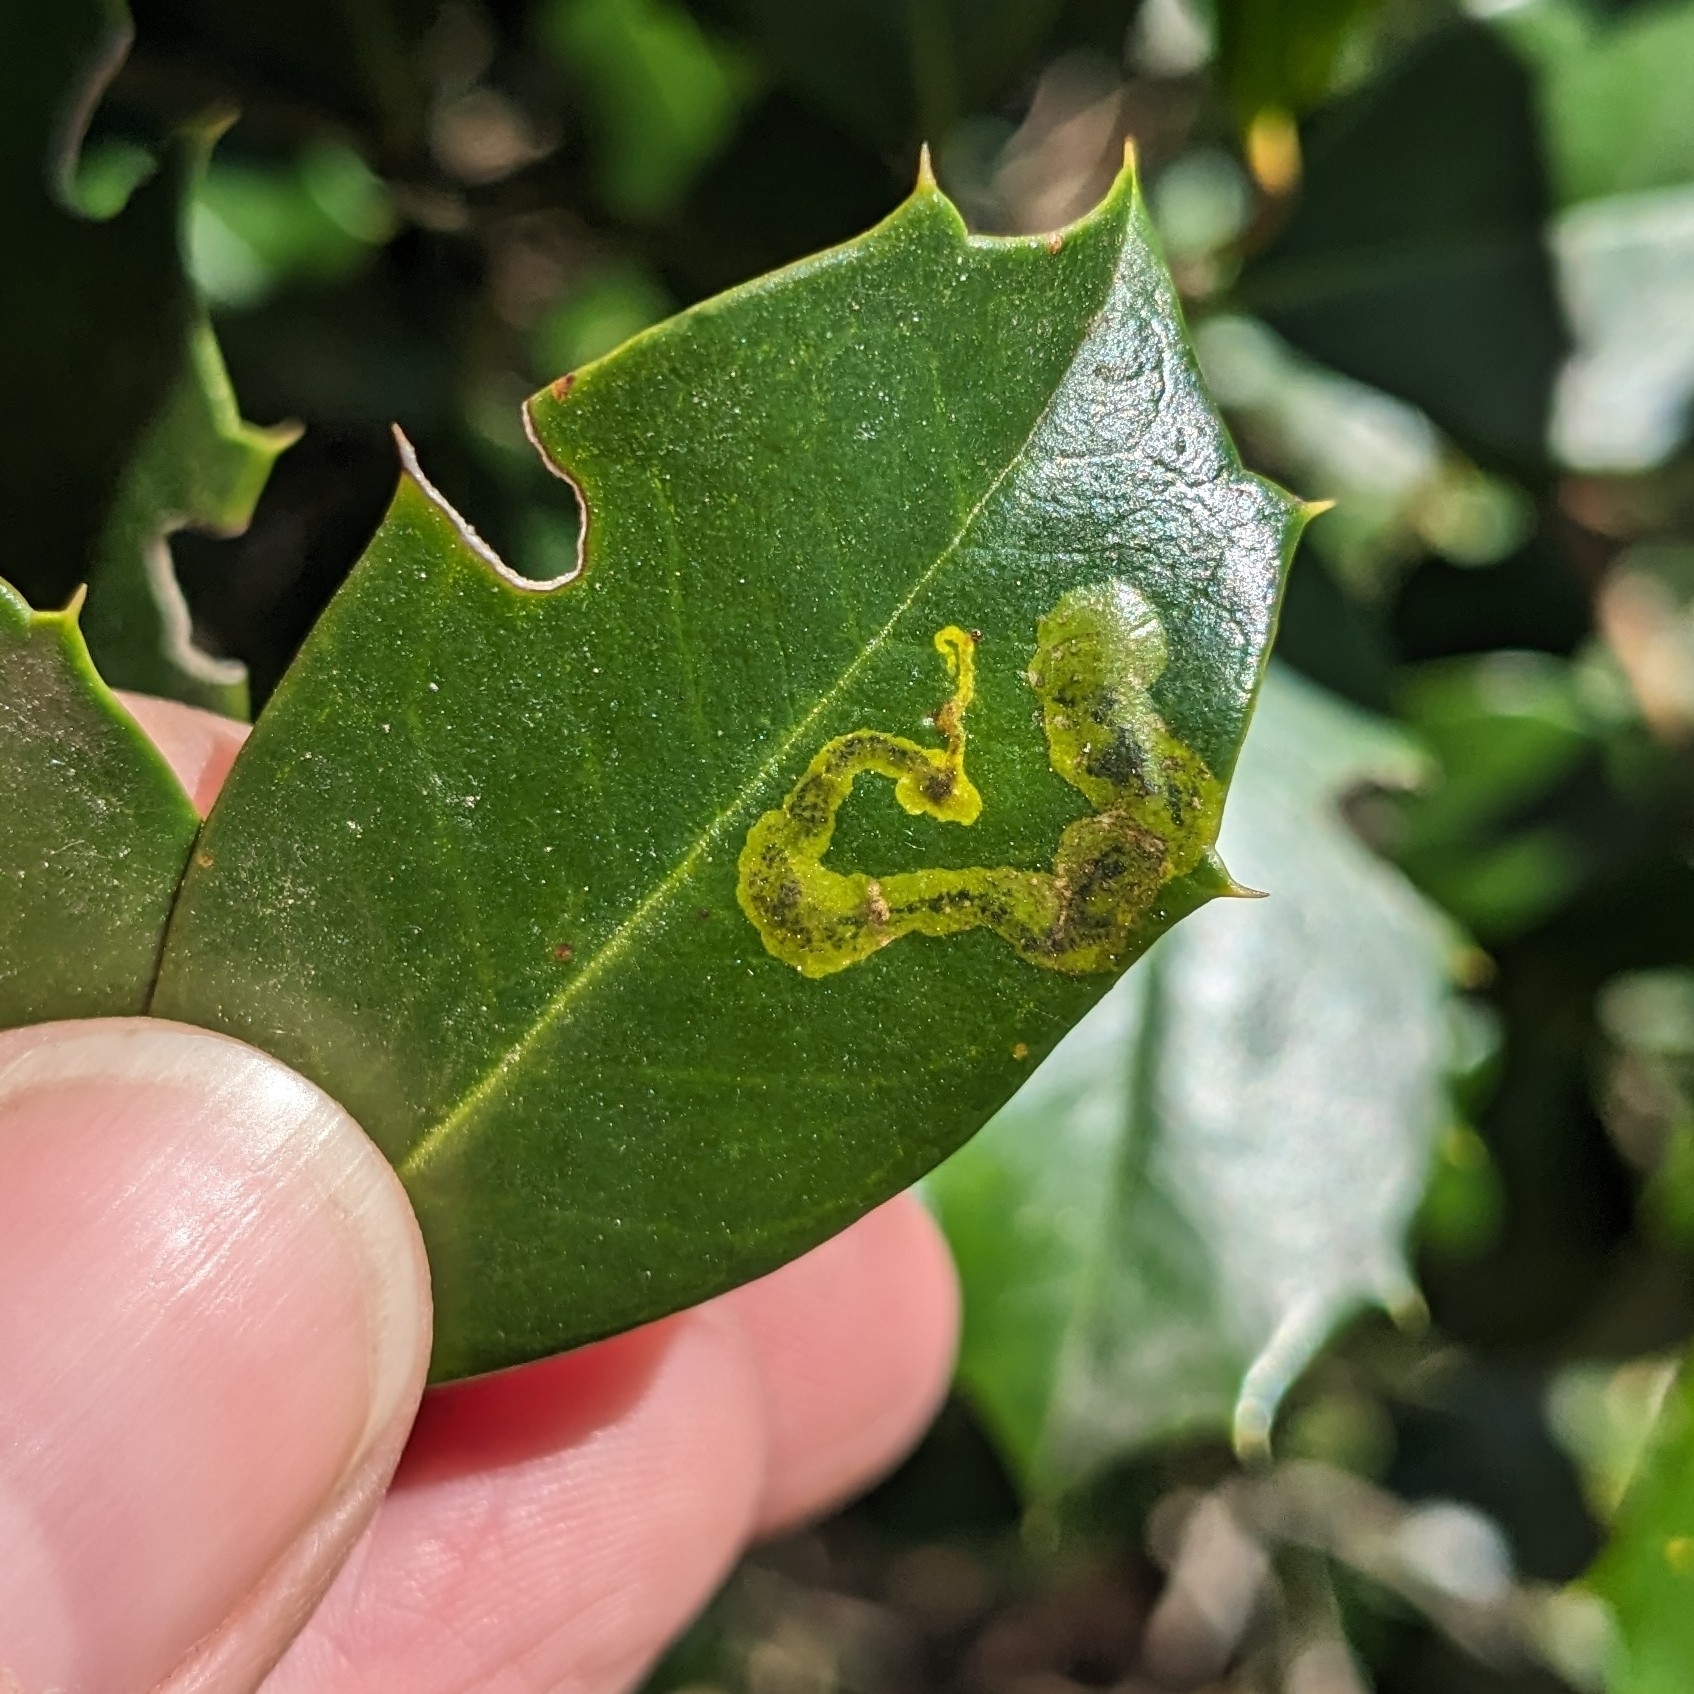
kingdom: Animalia
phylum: Arthropoda
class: Insecta
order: Diptera
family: Agromyzidae
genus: Phytomyza
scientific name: Phytomyza ilicicola
